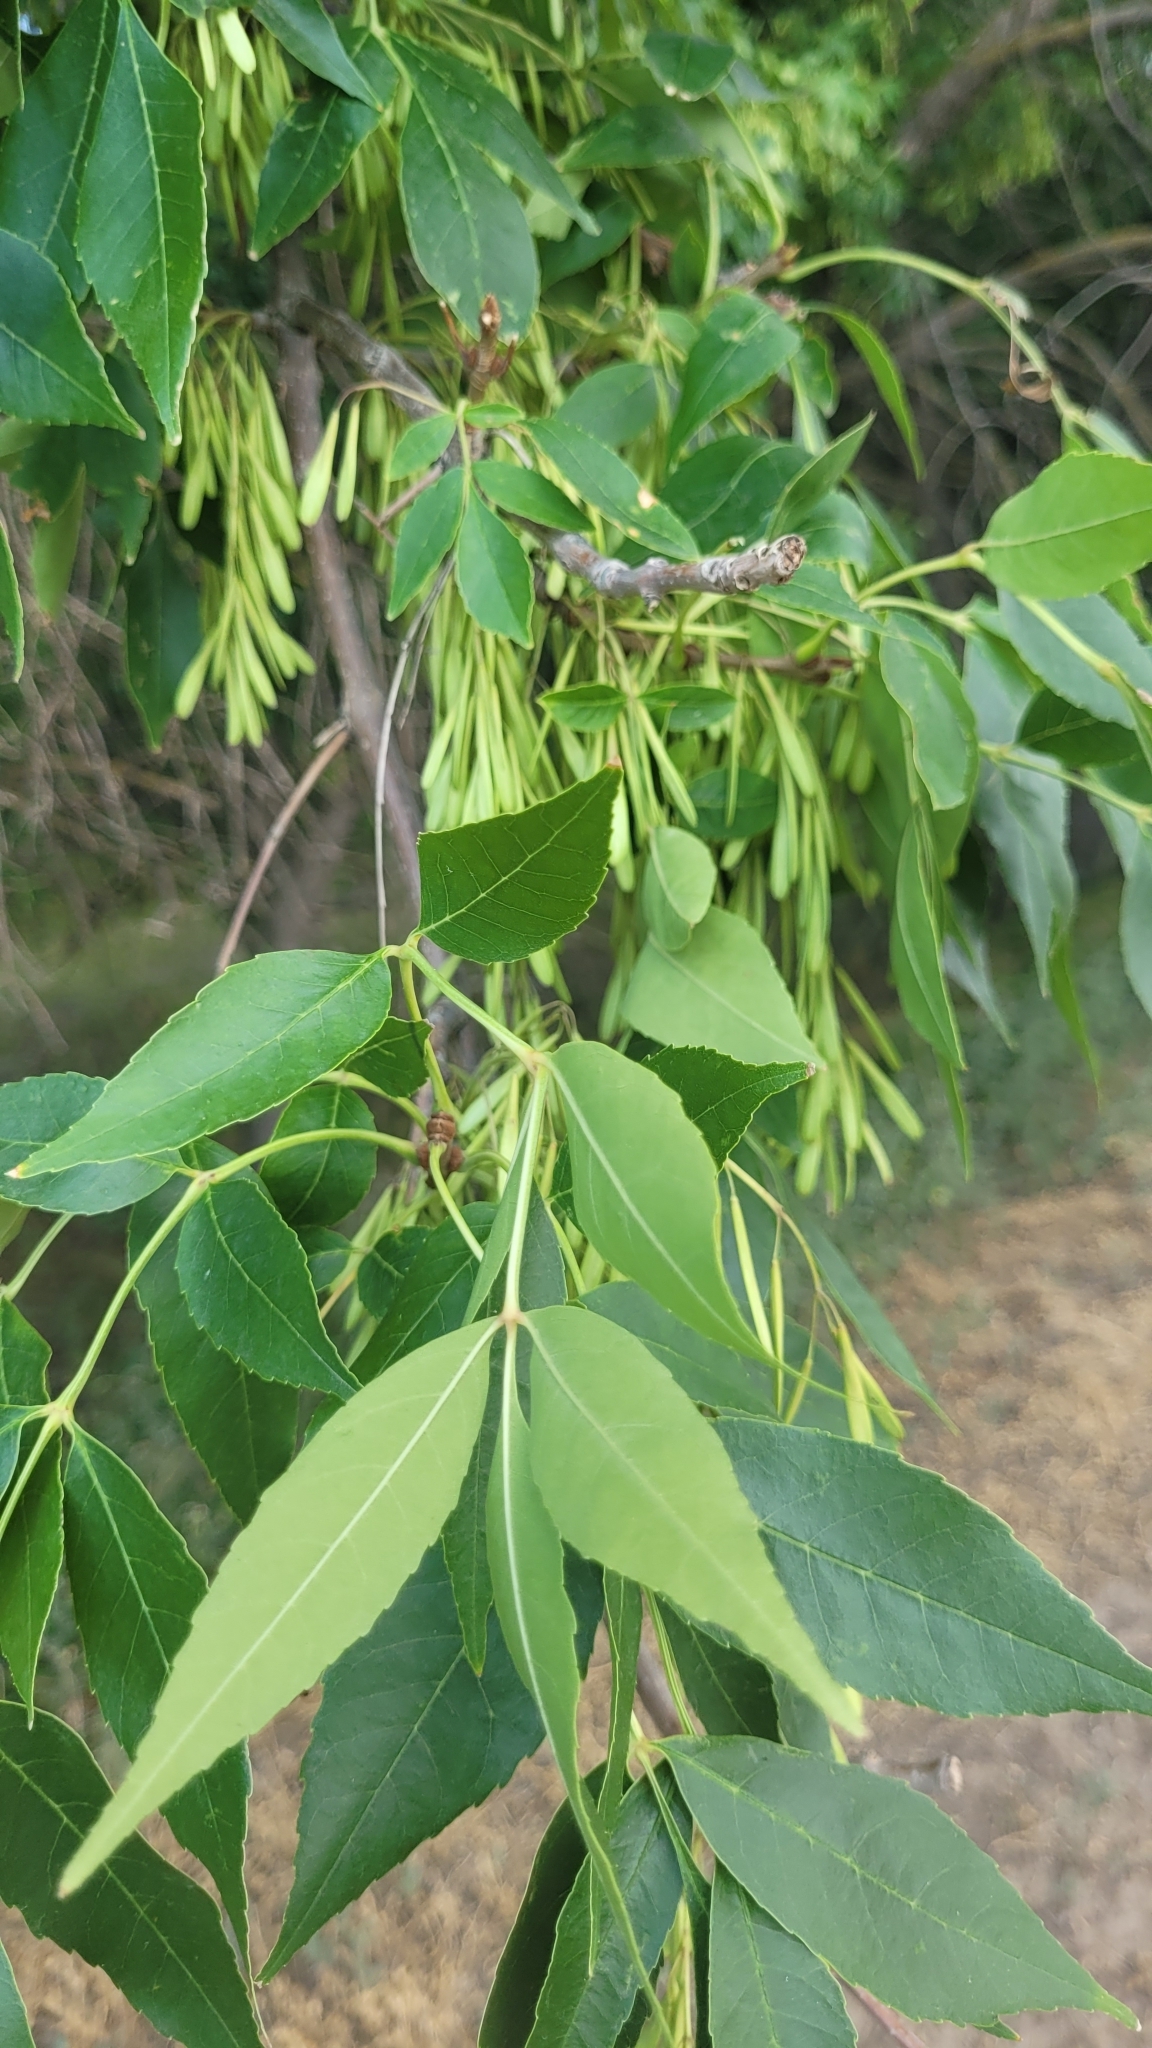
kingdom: Plantae
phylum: Tracheophyta
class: Magnoliopsida
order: Lamiales
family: Oleaceae
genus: Fraxinus
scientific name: Fraxinus pennsylvanica
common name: Green ash
